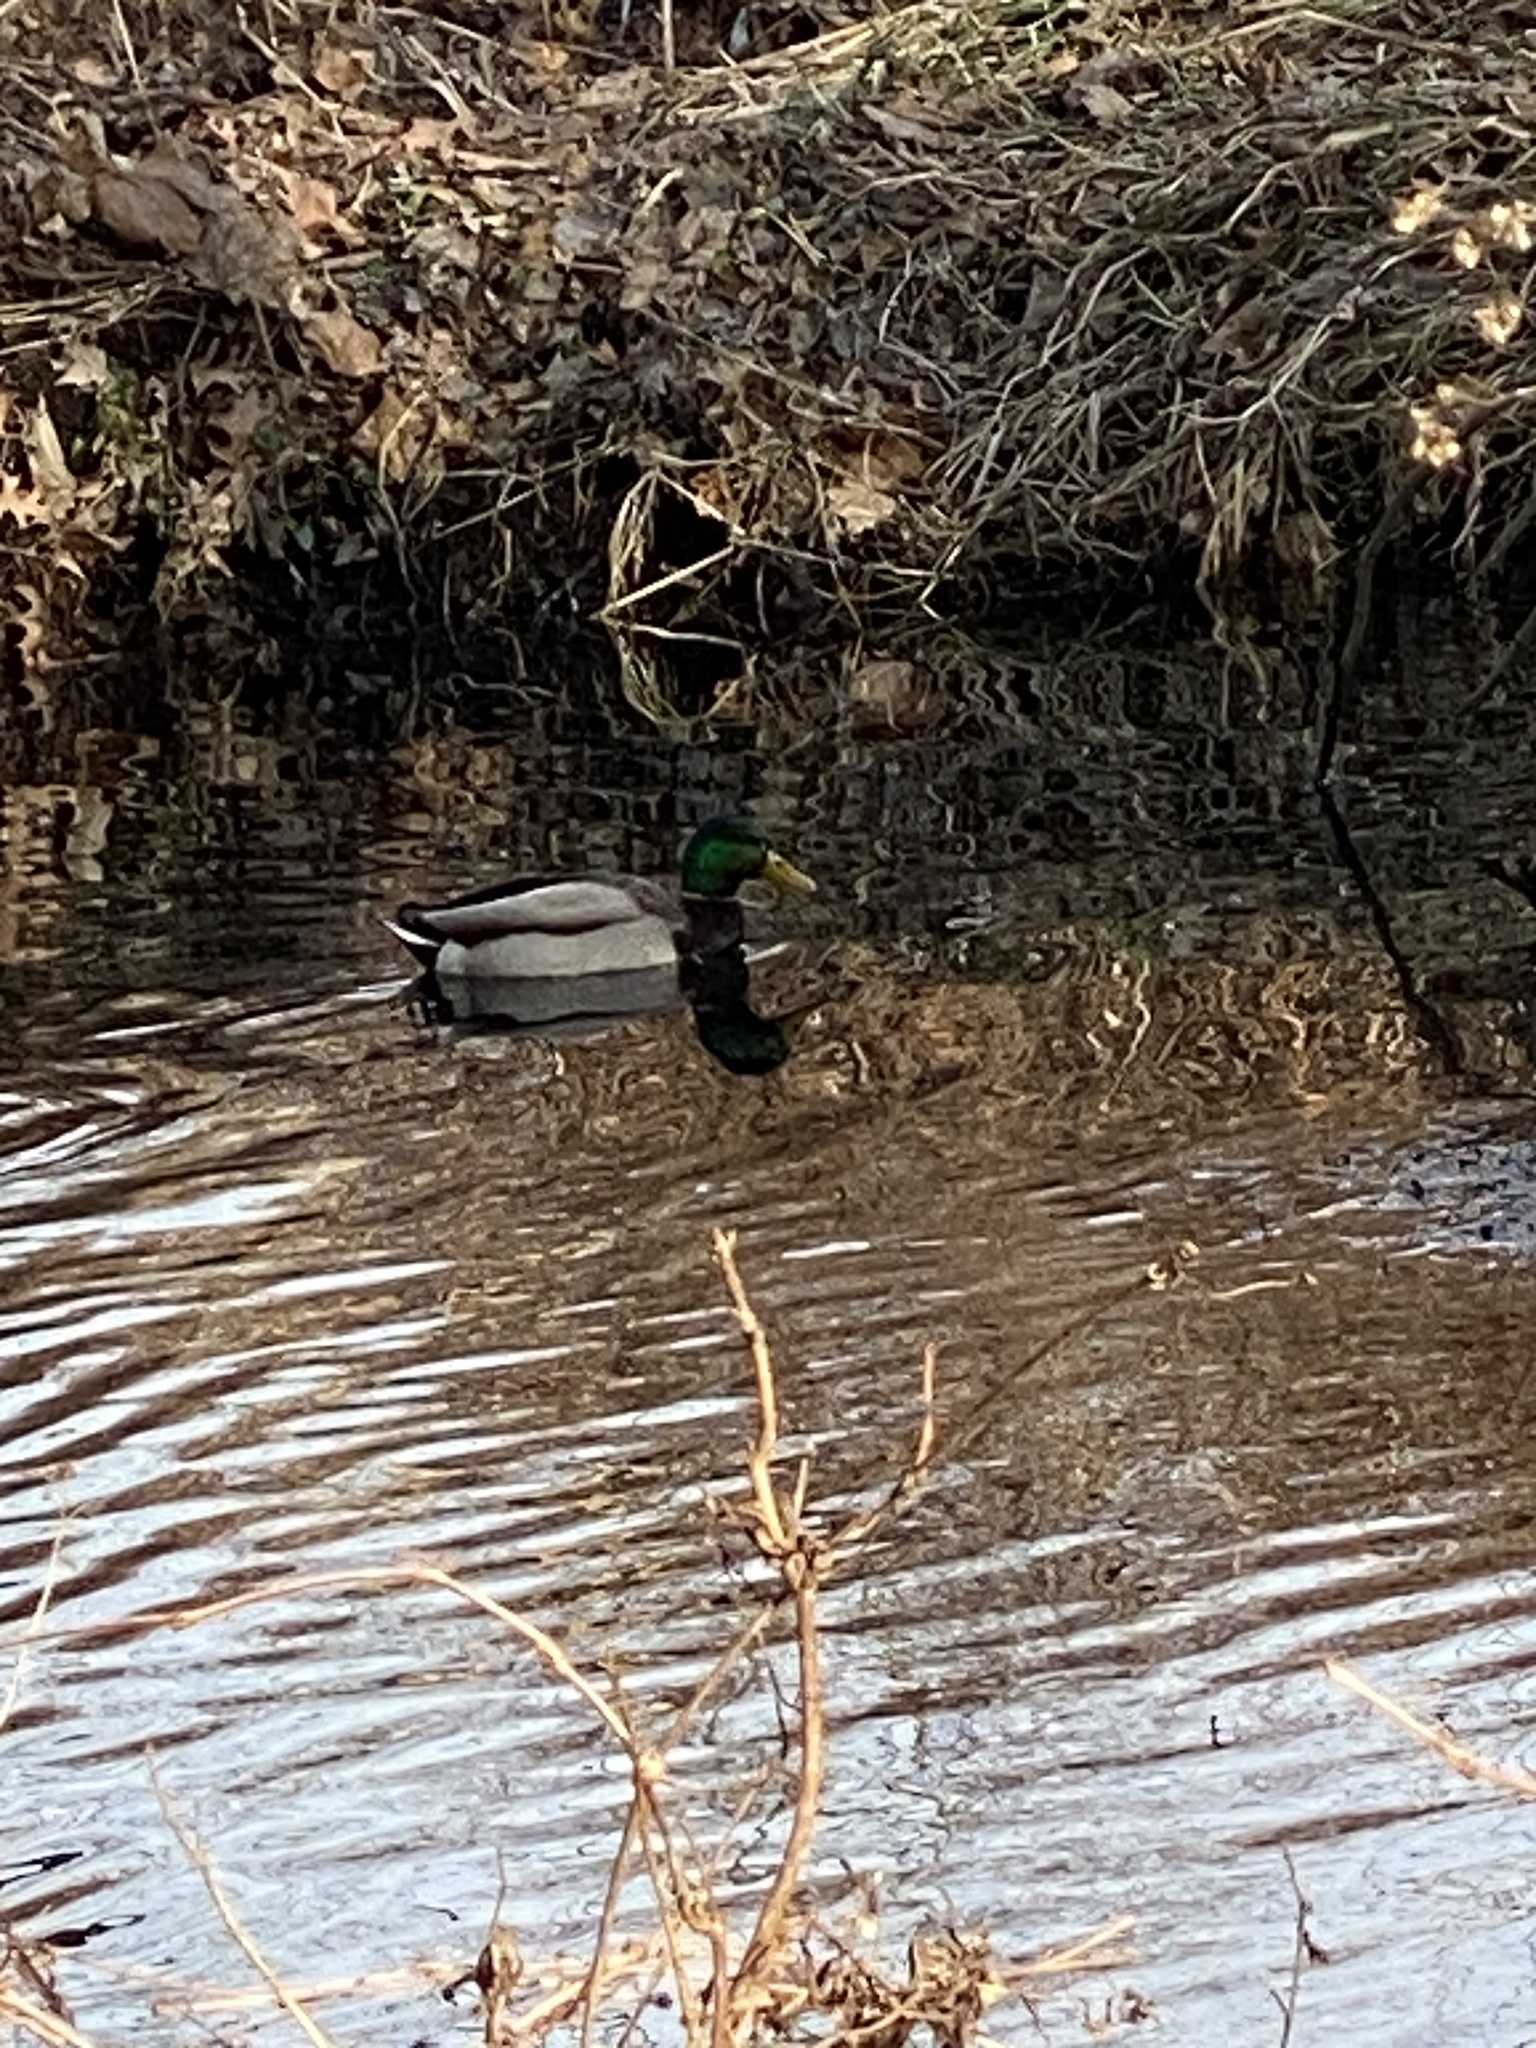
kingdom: Animalia
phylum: Chordata
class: Aves
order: Anseriformes
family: Anatidae
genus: Anas
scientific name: Anas platyrhynchos
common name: Mallard
